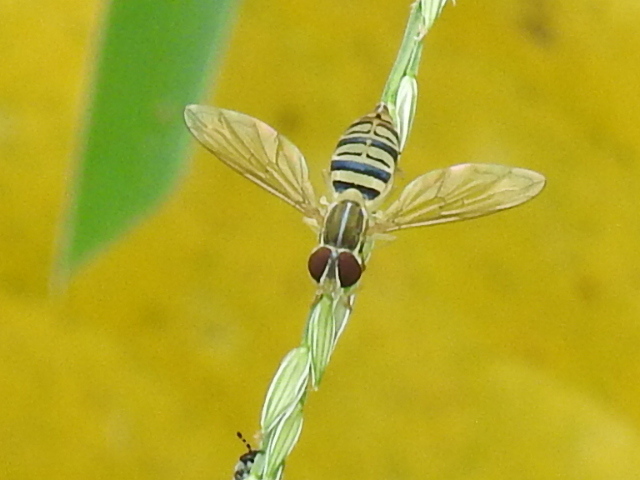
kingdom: Animalia
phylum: Arthropoda
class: Insecta
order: Diptera
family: Syrphidae
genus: Toxomerus
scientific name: Toxomerus politus
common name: Maize calligrapher
